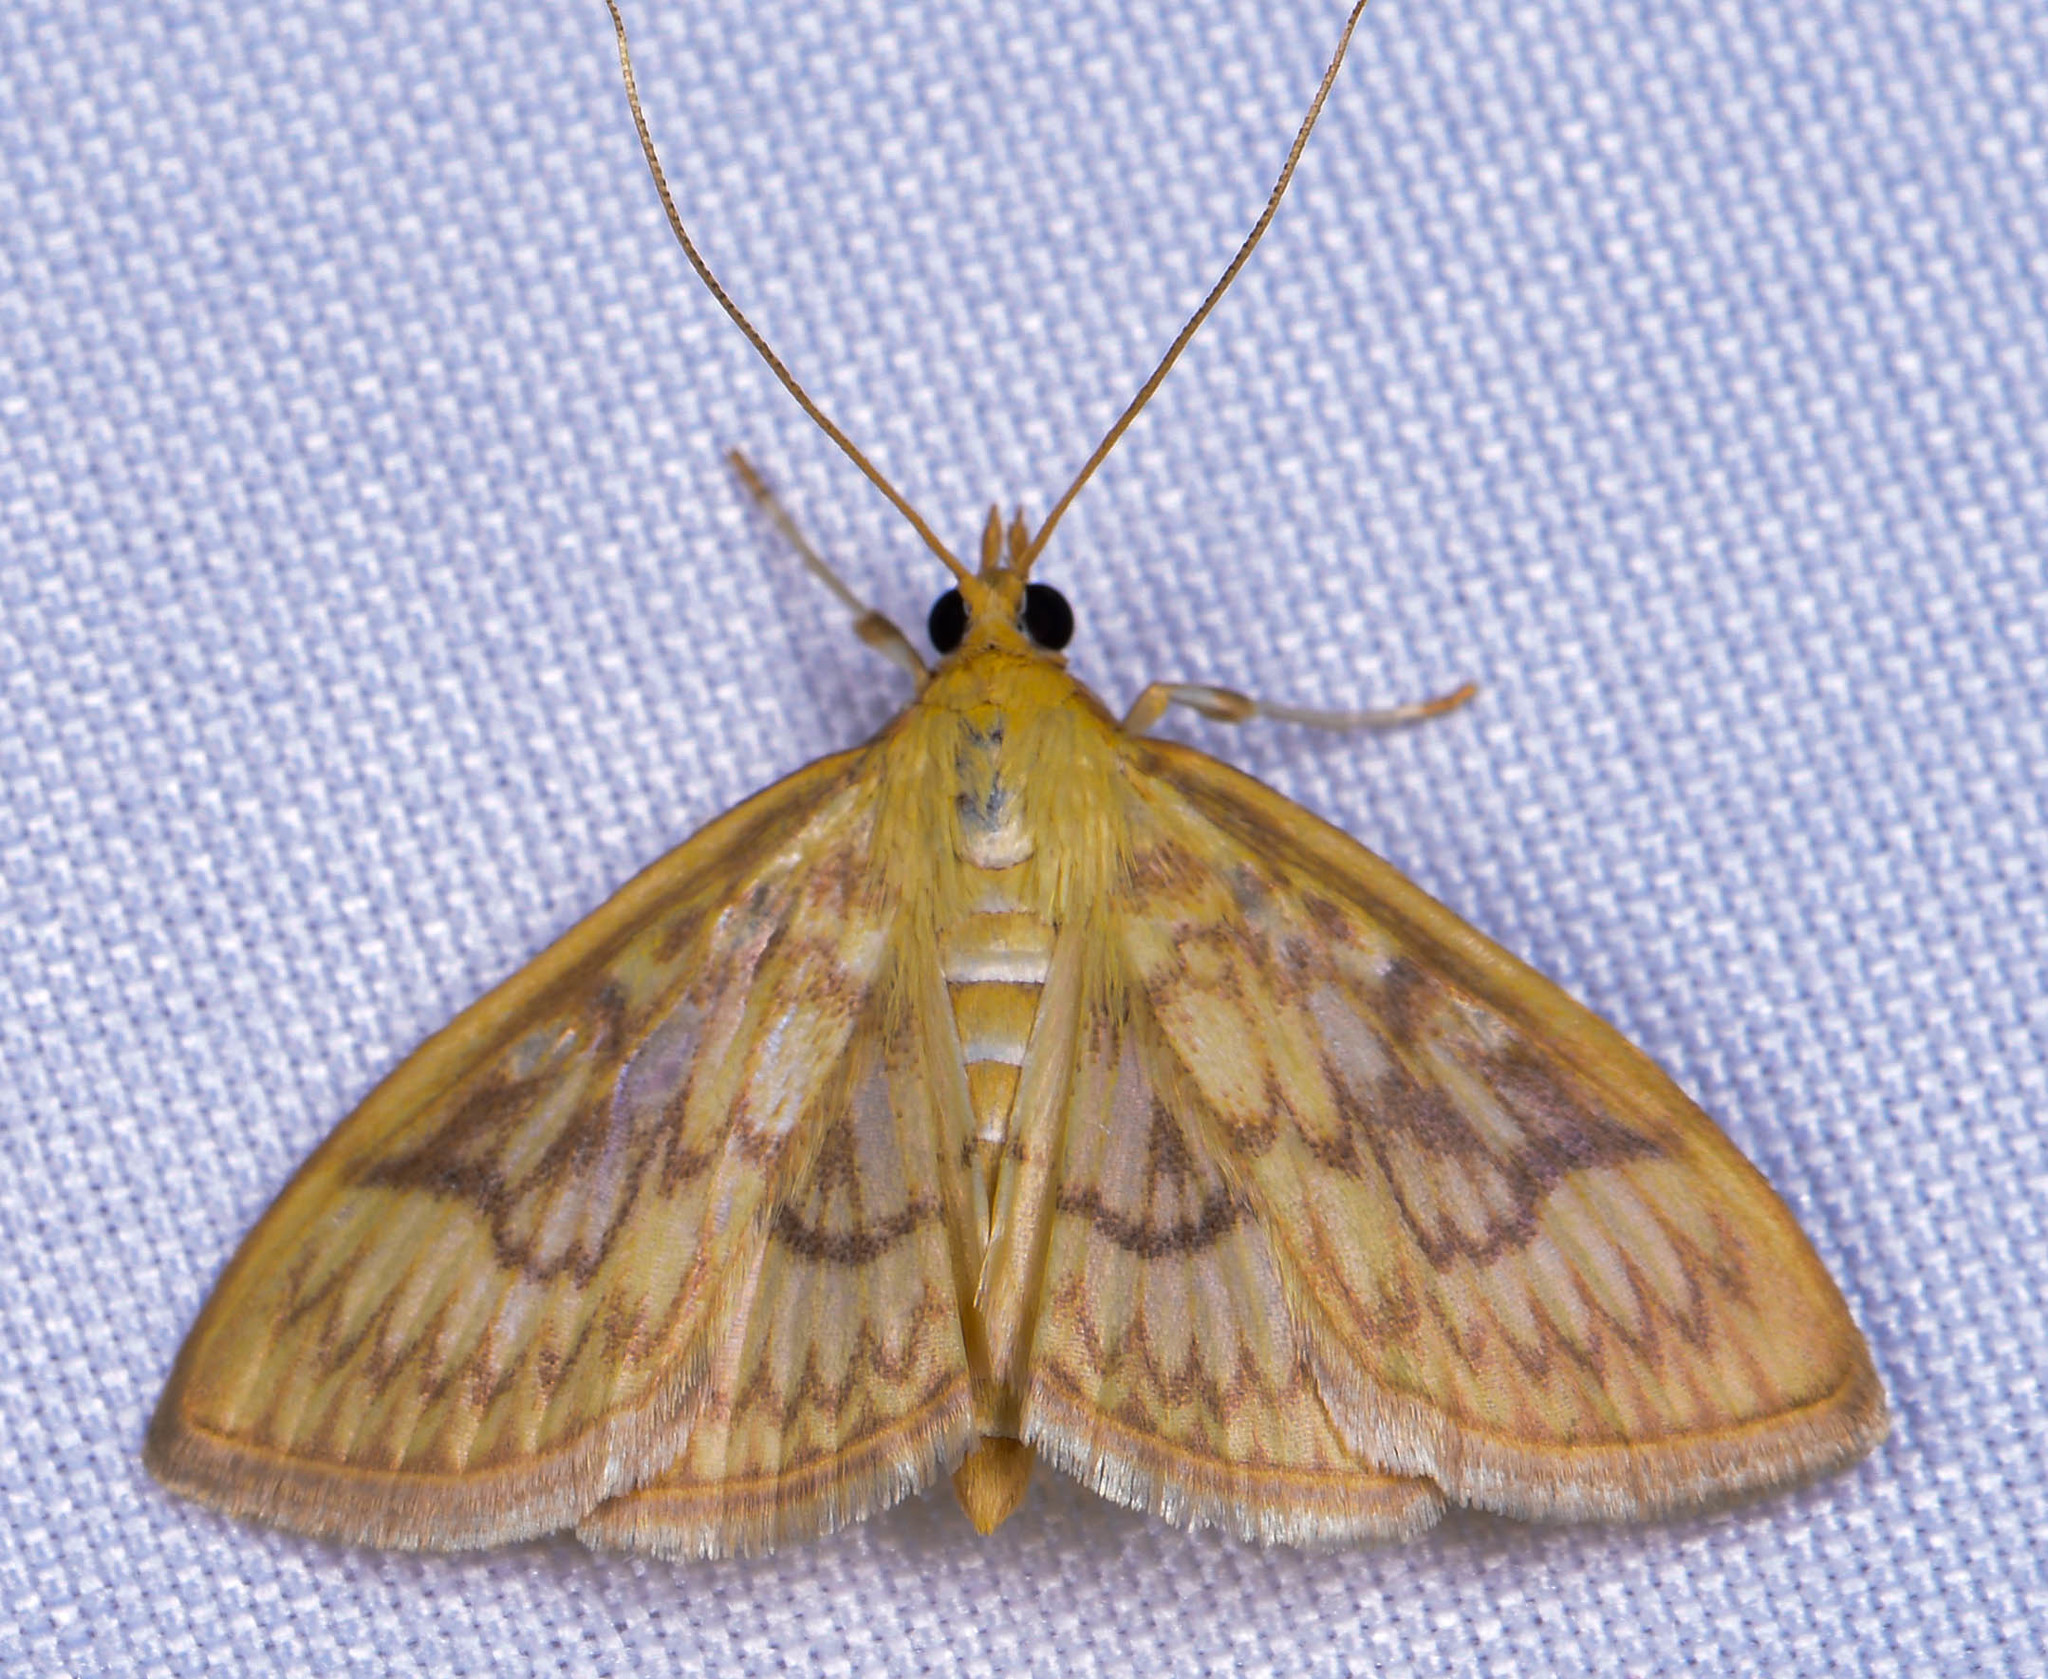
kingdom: Animalia
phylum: Arthropoda
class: Insecta
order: Lepidoptera
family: Crambidae
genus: Crocidophora
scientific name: Crocidophora serratissimalis
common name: Saw-toothed crocidophora moth
